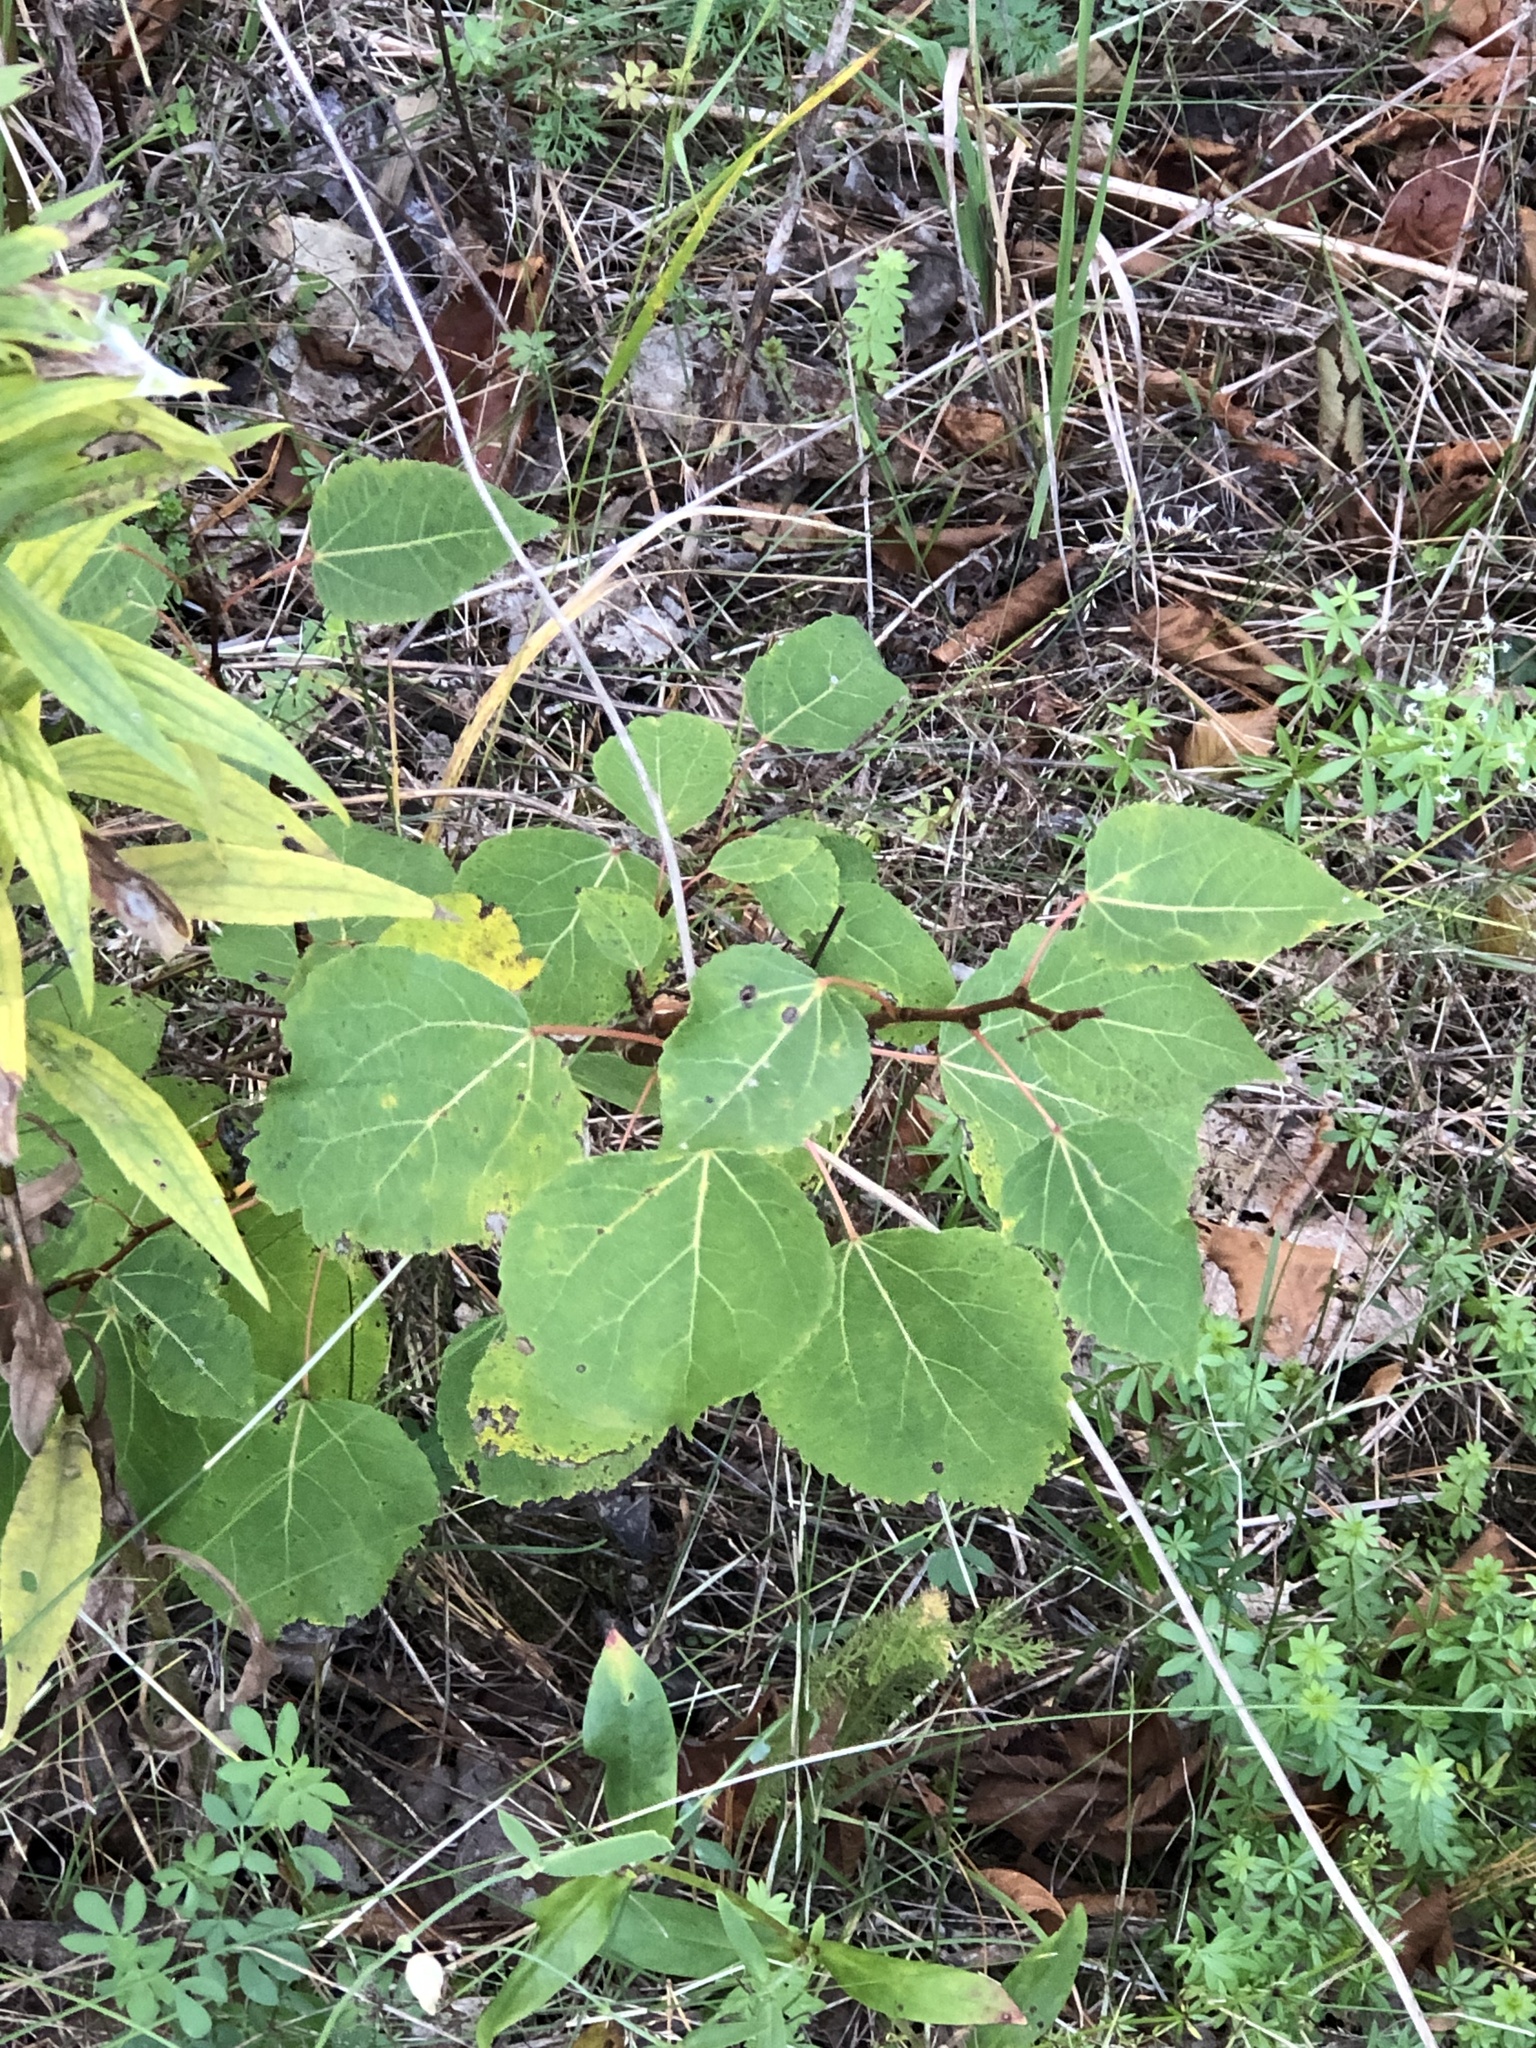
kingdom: Plantae
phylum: Tracheophyta
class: Magnoliopsida
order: Malpighiales
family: Salicaceae
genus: Populus
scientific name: Populus tremuloides
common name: Quaking aspen
